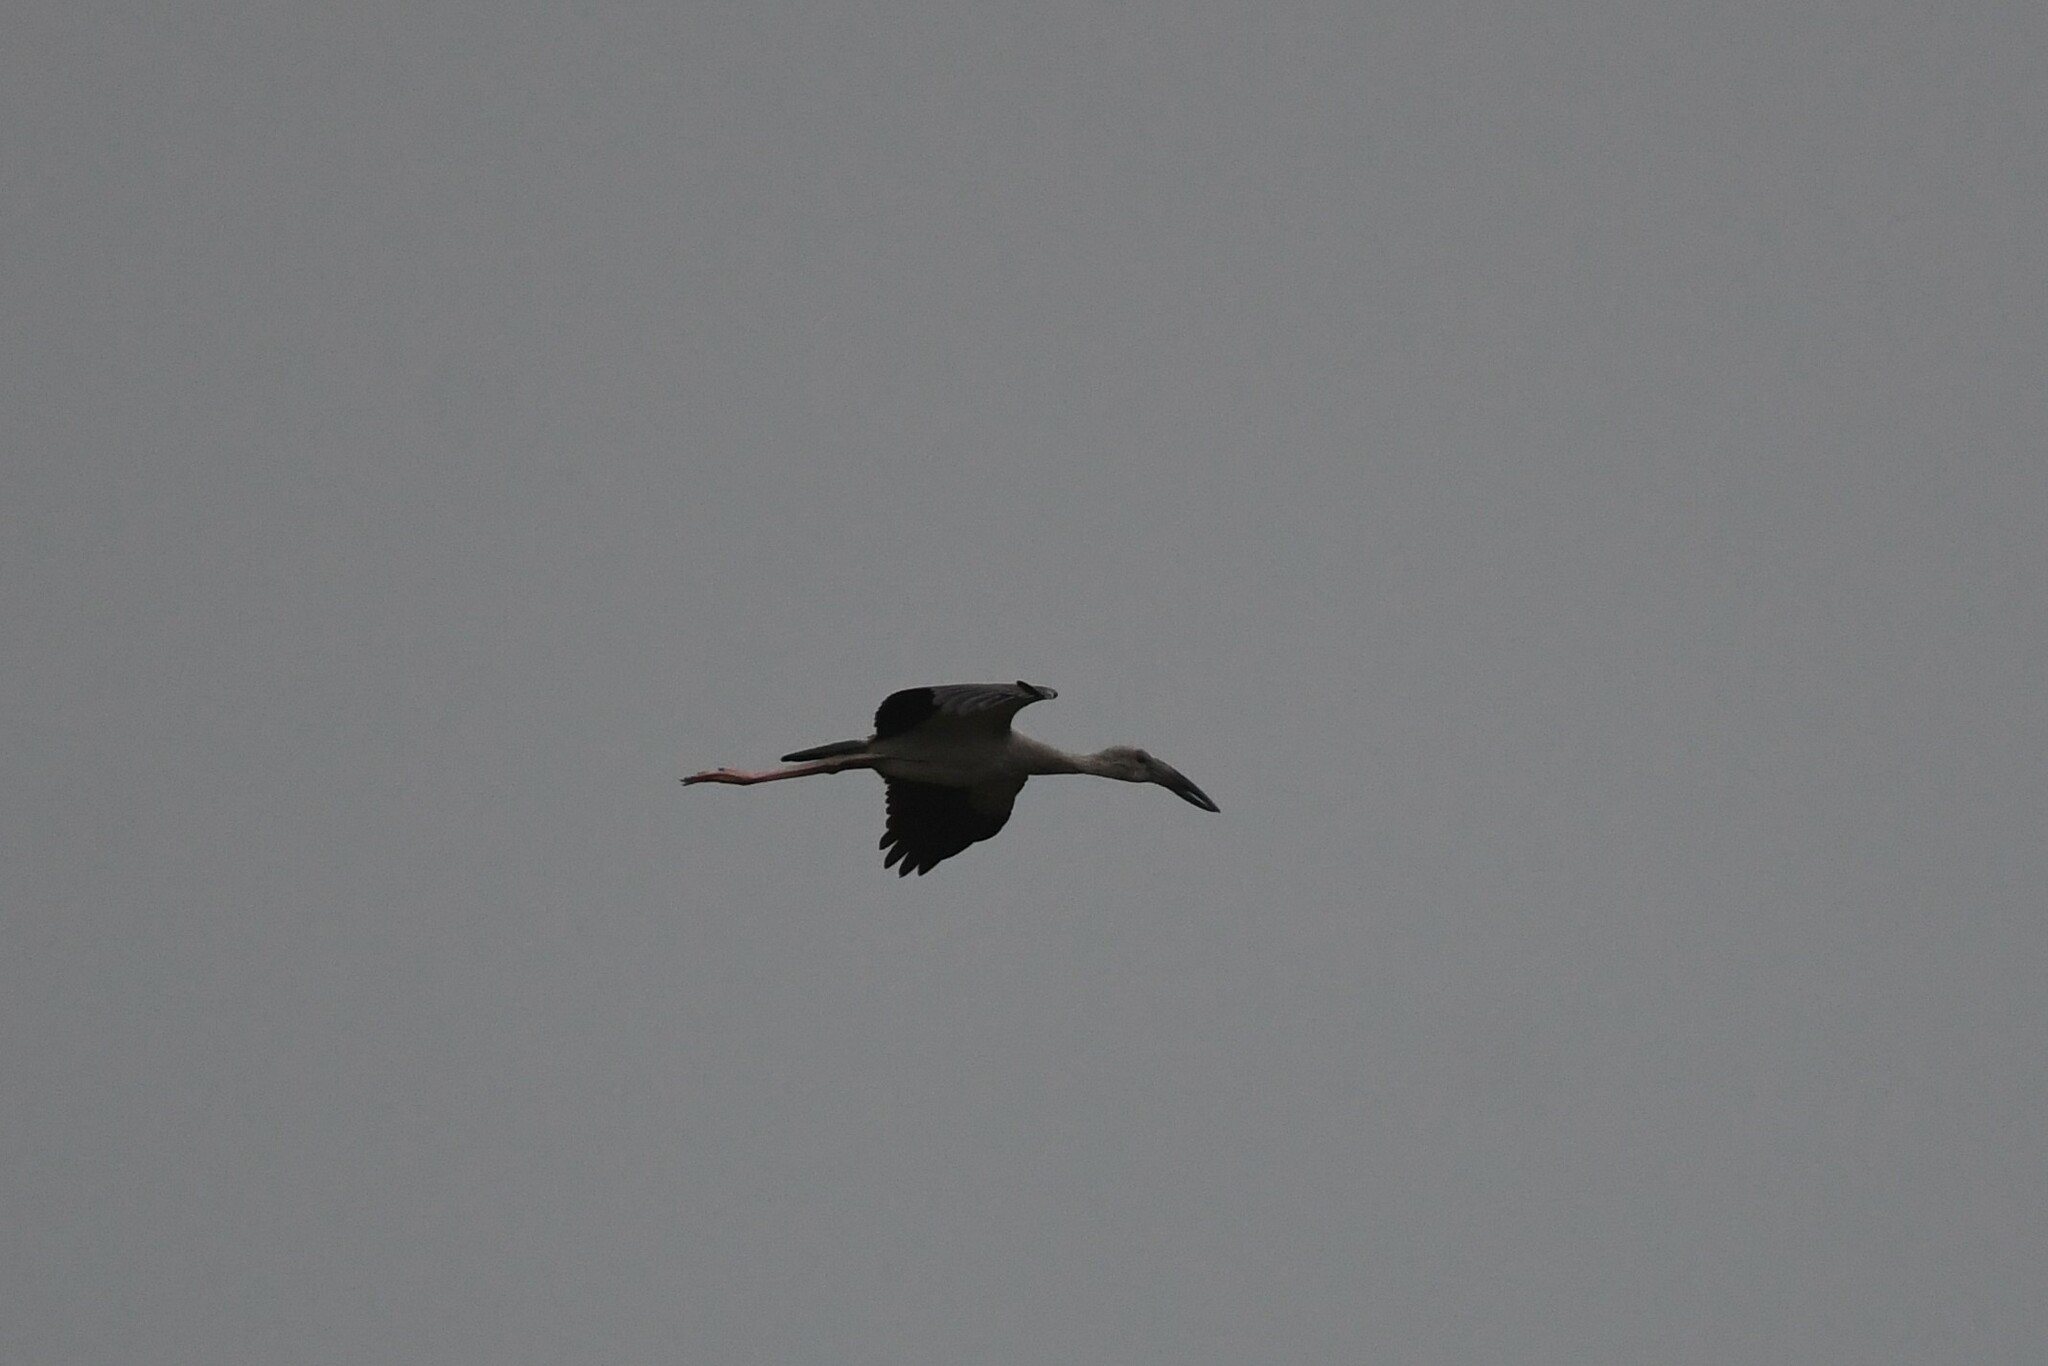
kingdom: Animalia
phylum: Chordata
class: Aves
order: Ciconiiformes
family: Ciconiidae
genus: Anastomus
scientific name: Anastomus oscitans
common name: Asian openbill
